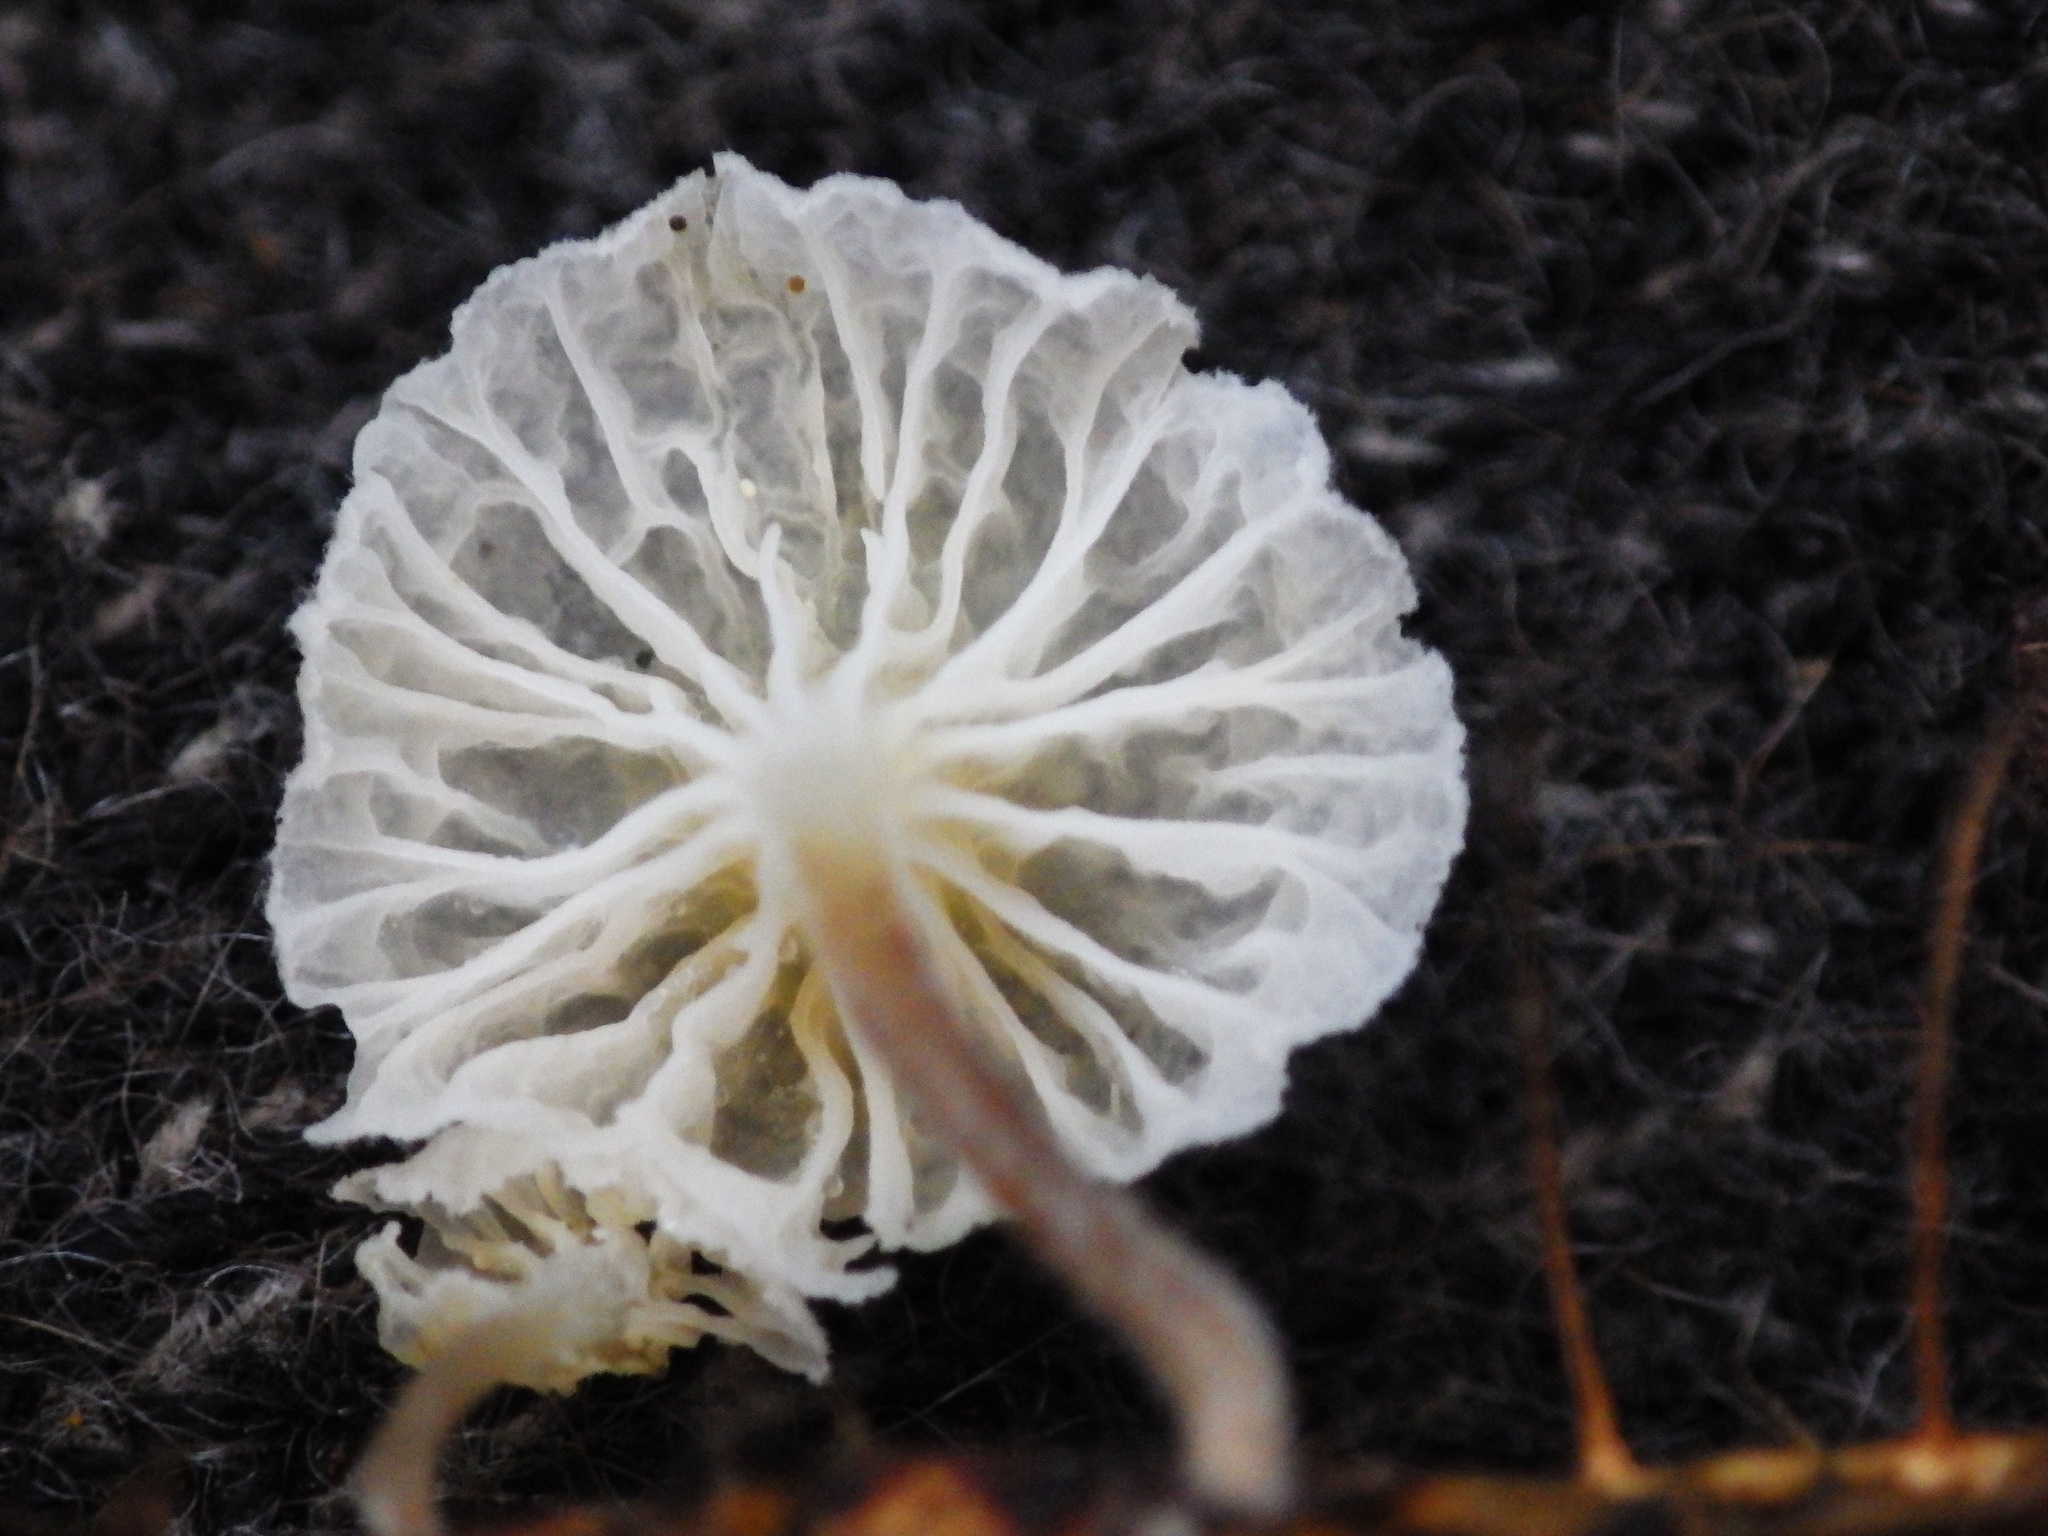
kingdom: Fungi
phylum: Basidiomycota
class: Agaricomycetes
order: Agaricales
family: Porotheleaceae
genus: Porotheleum
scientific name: Porotheleum albodescendens
